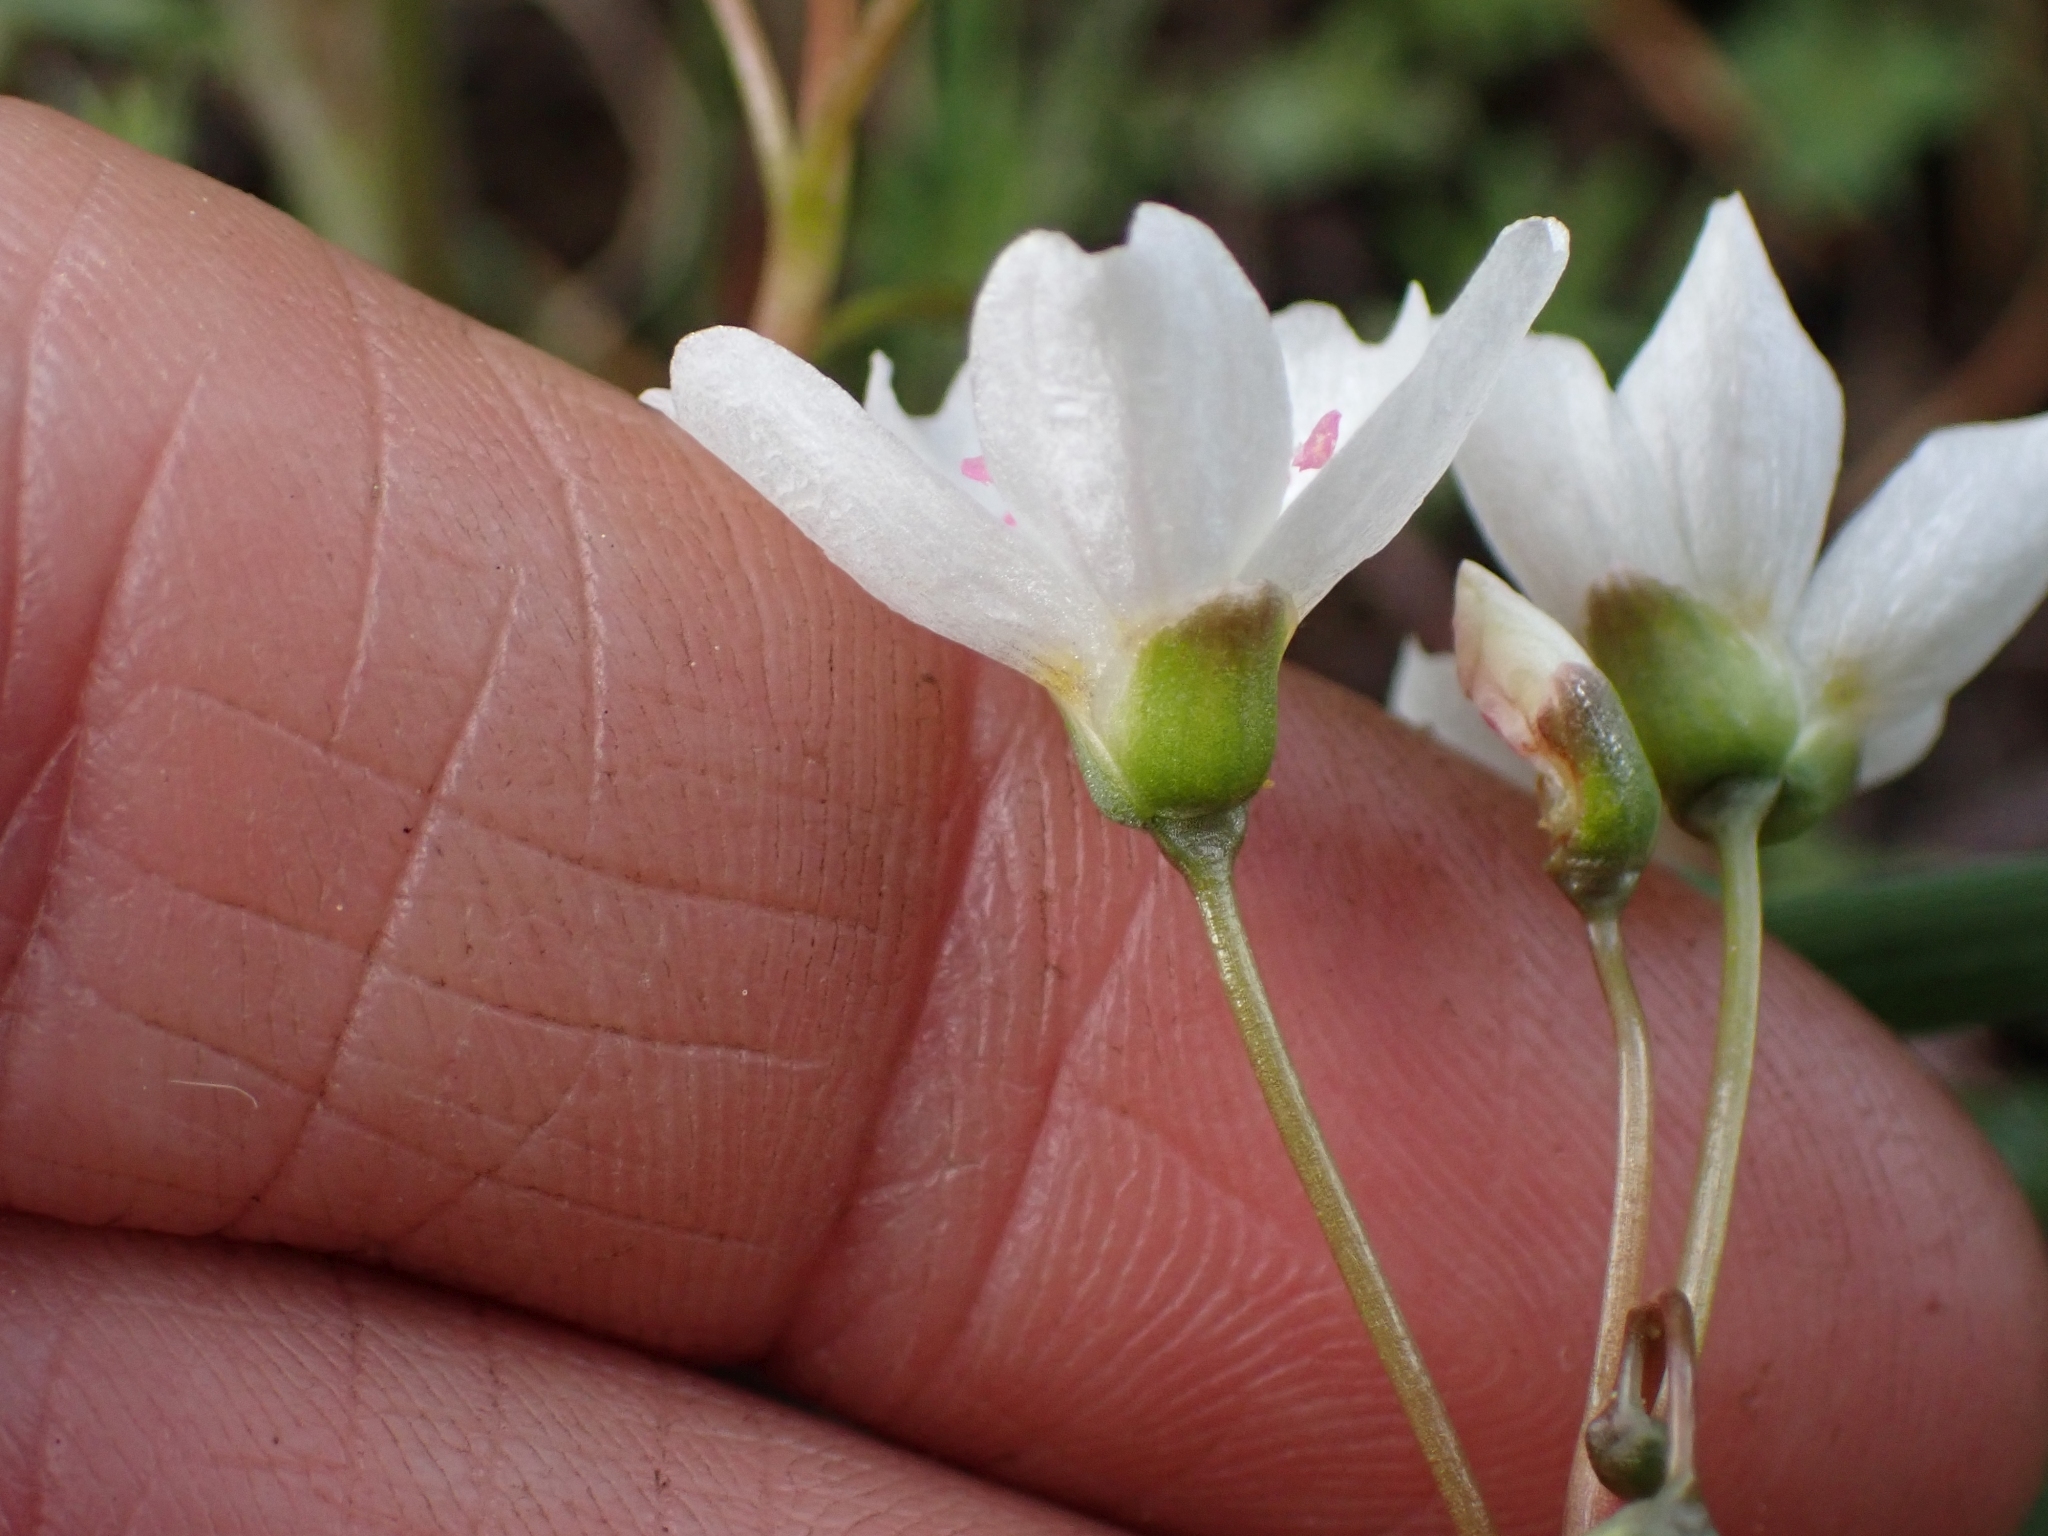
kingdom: Plantae
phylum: Tracheophyta
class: Magnoliopsida
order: Caryophyllales
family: Montiaceae
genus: Claytonia
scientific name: Claytonia lanceolata
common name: Western spring-beauty
